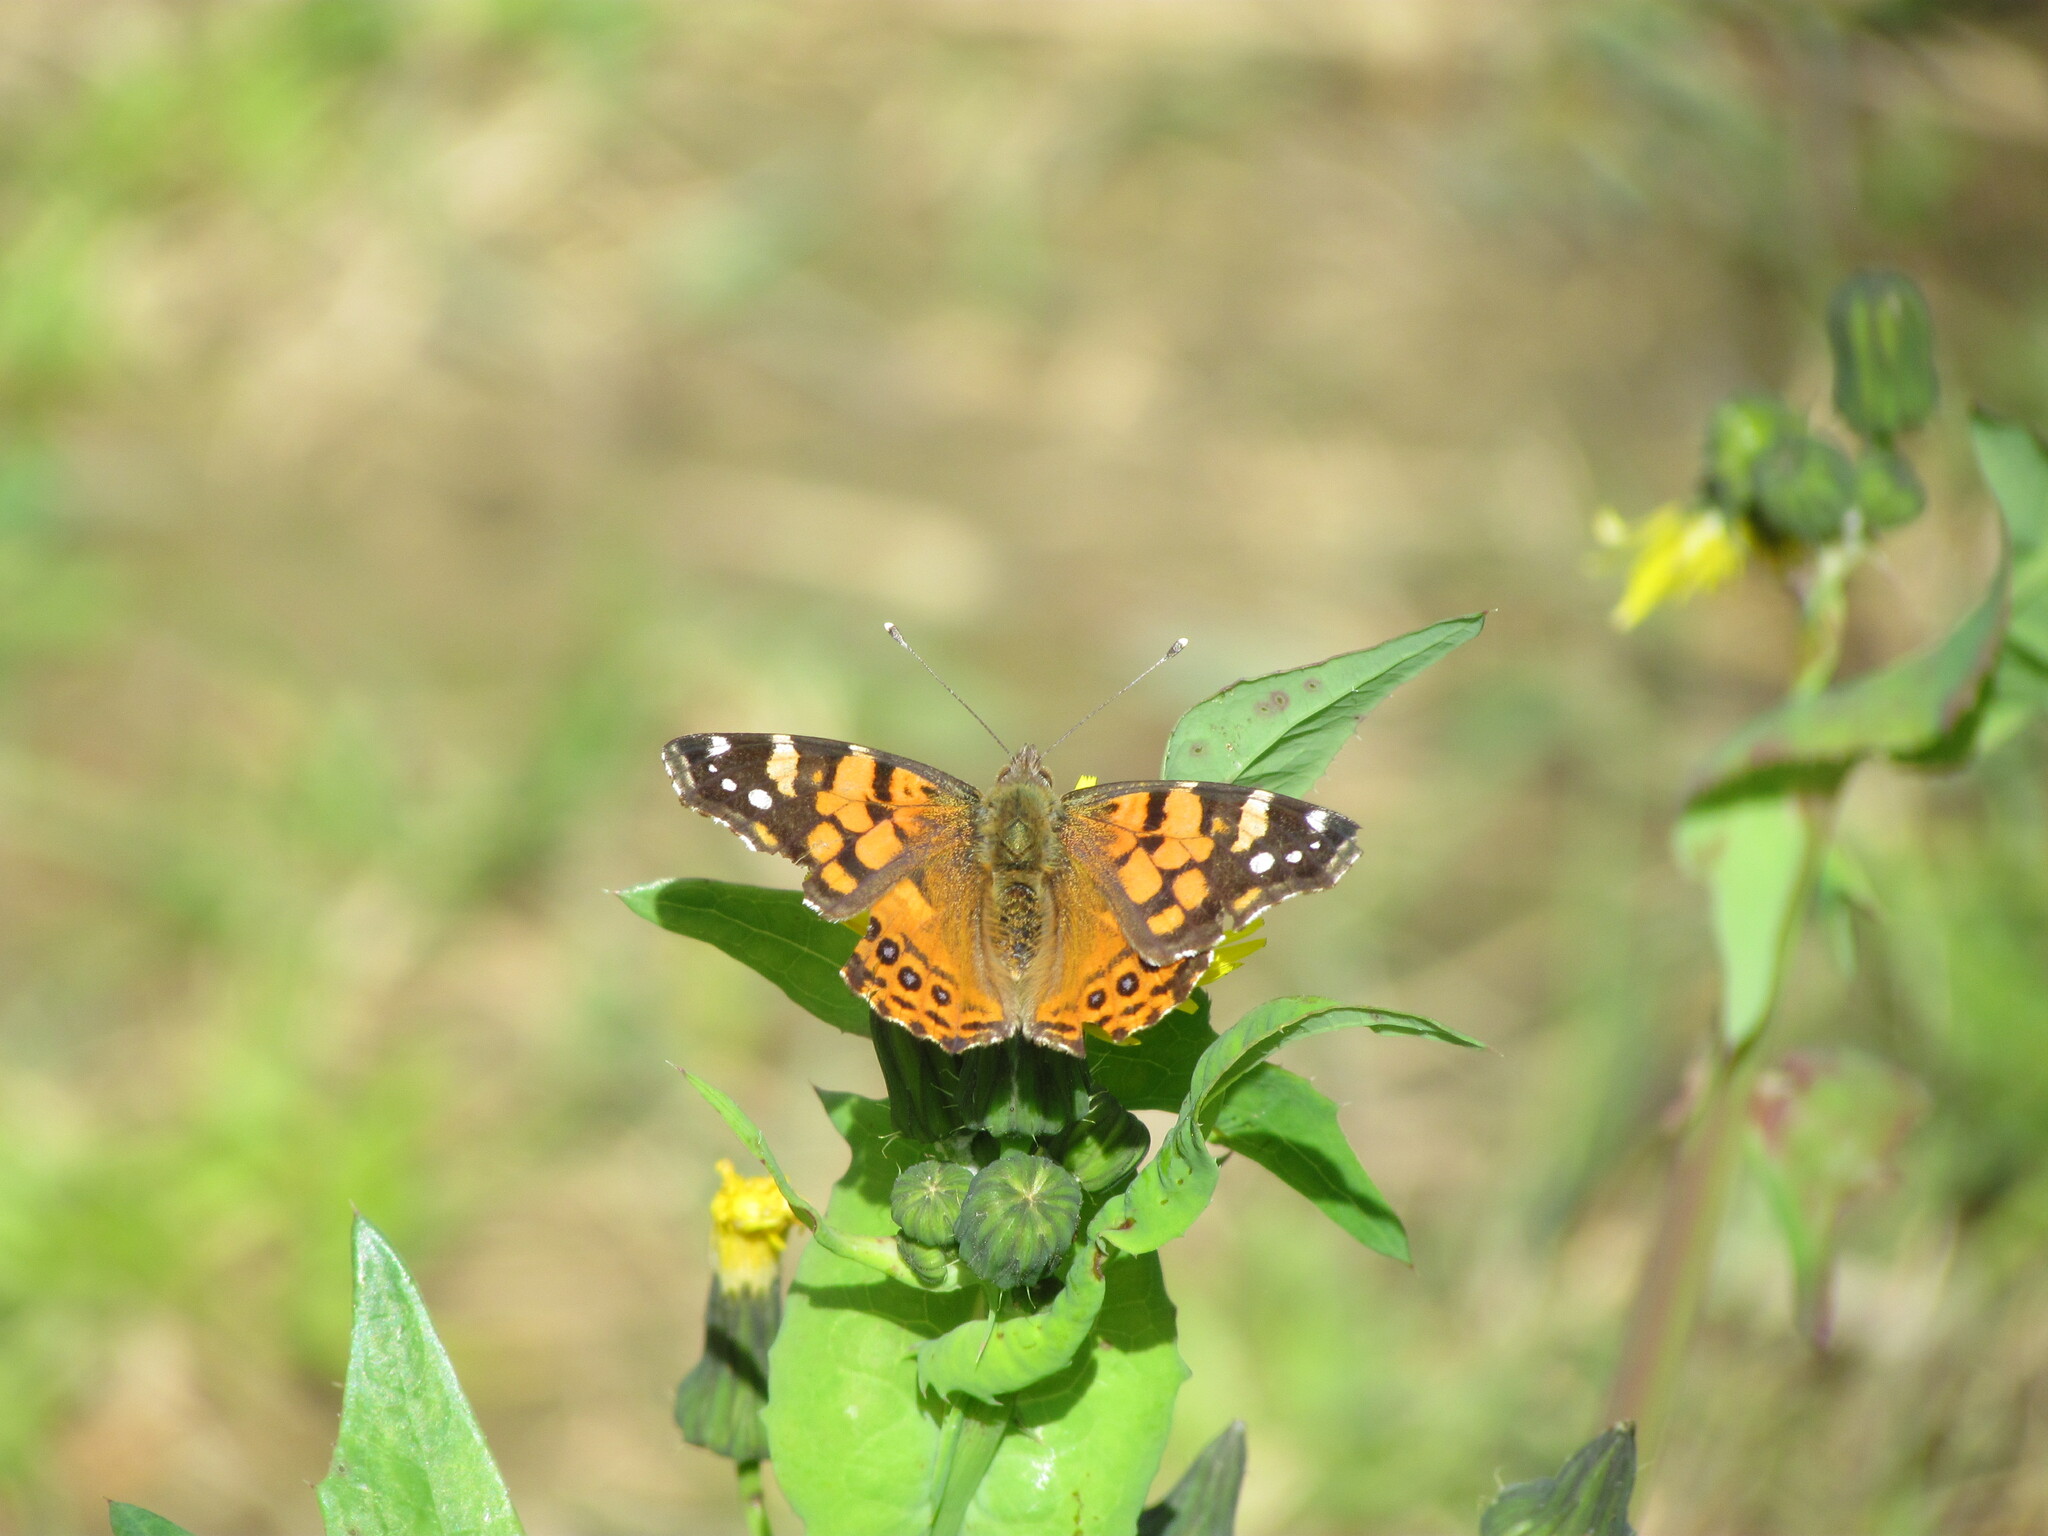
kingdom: Animalia
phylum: Arthropoda
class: Insecta
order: Lepidoptera
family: Nymphalidae
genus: Vanessa
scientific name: Vanessa carye
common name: Subtropical lady
